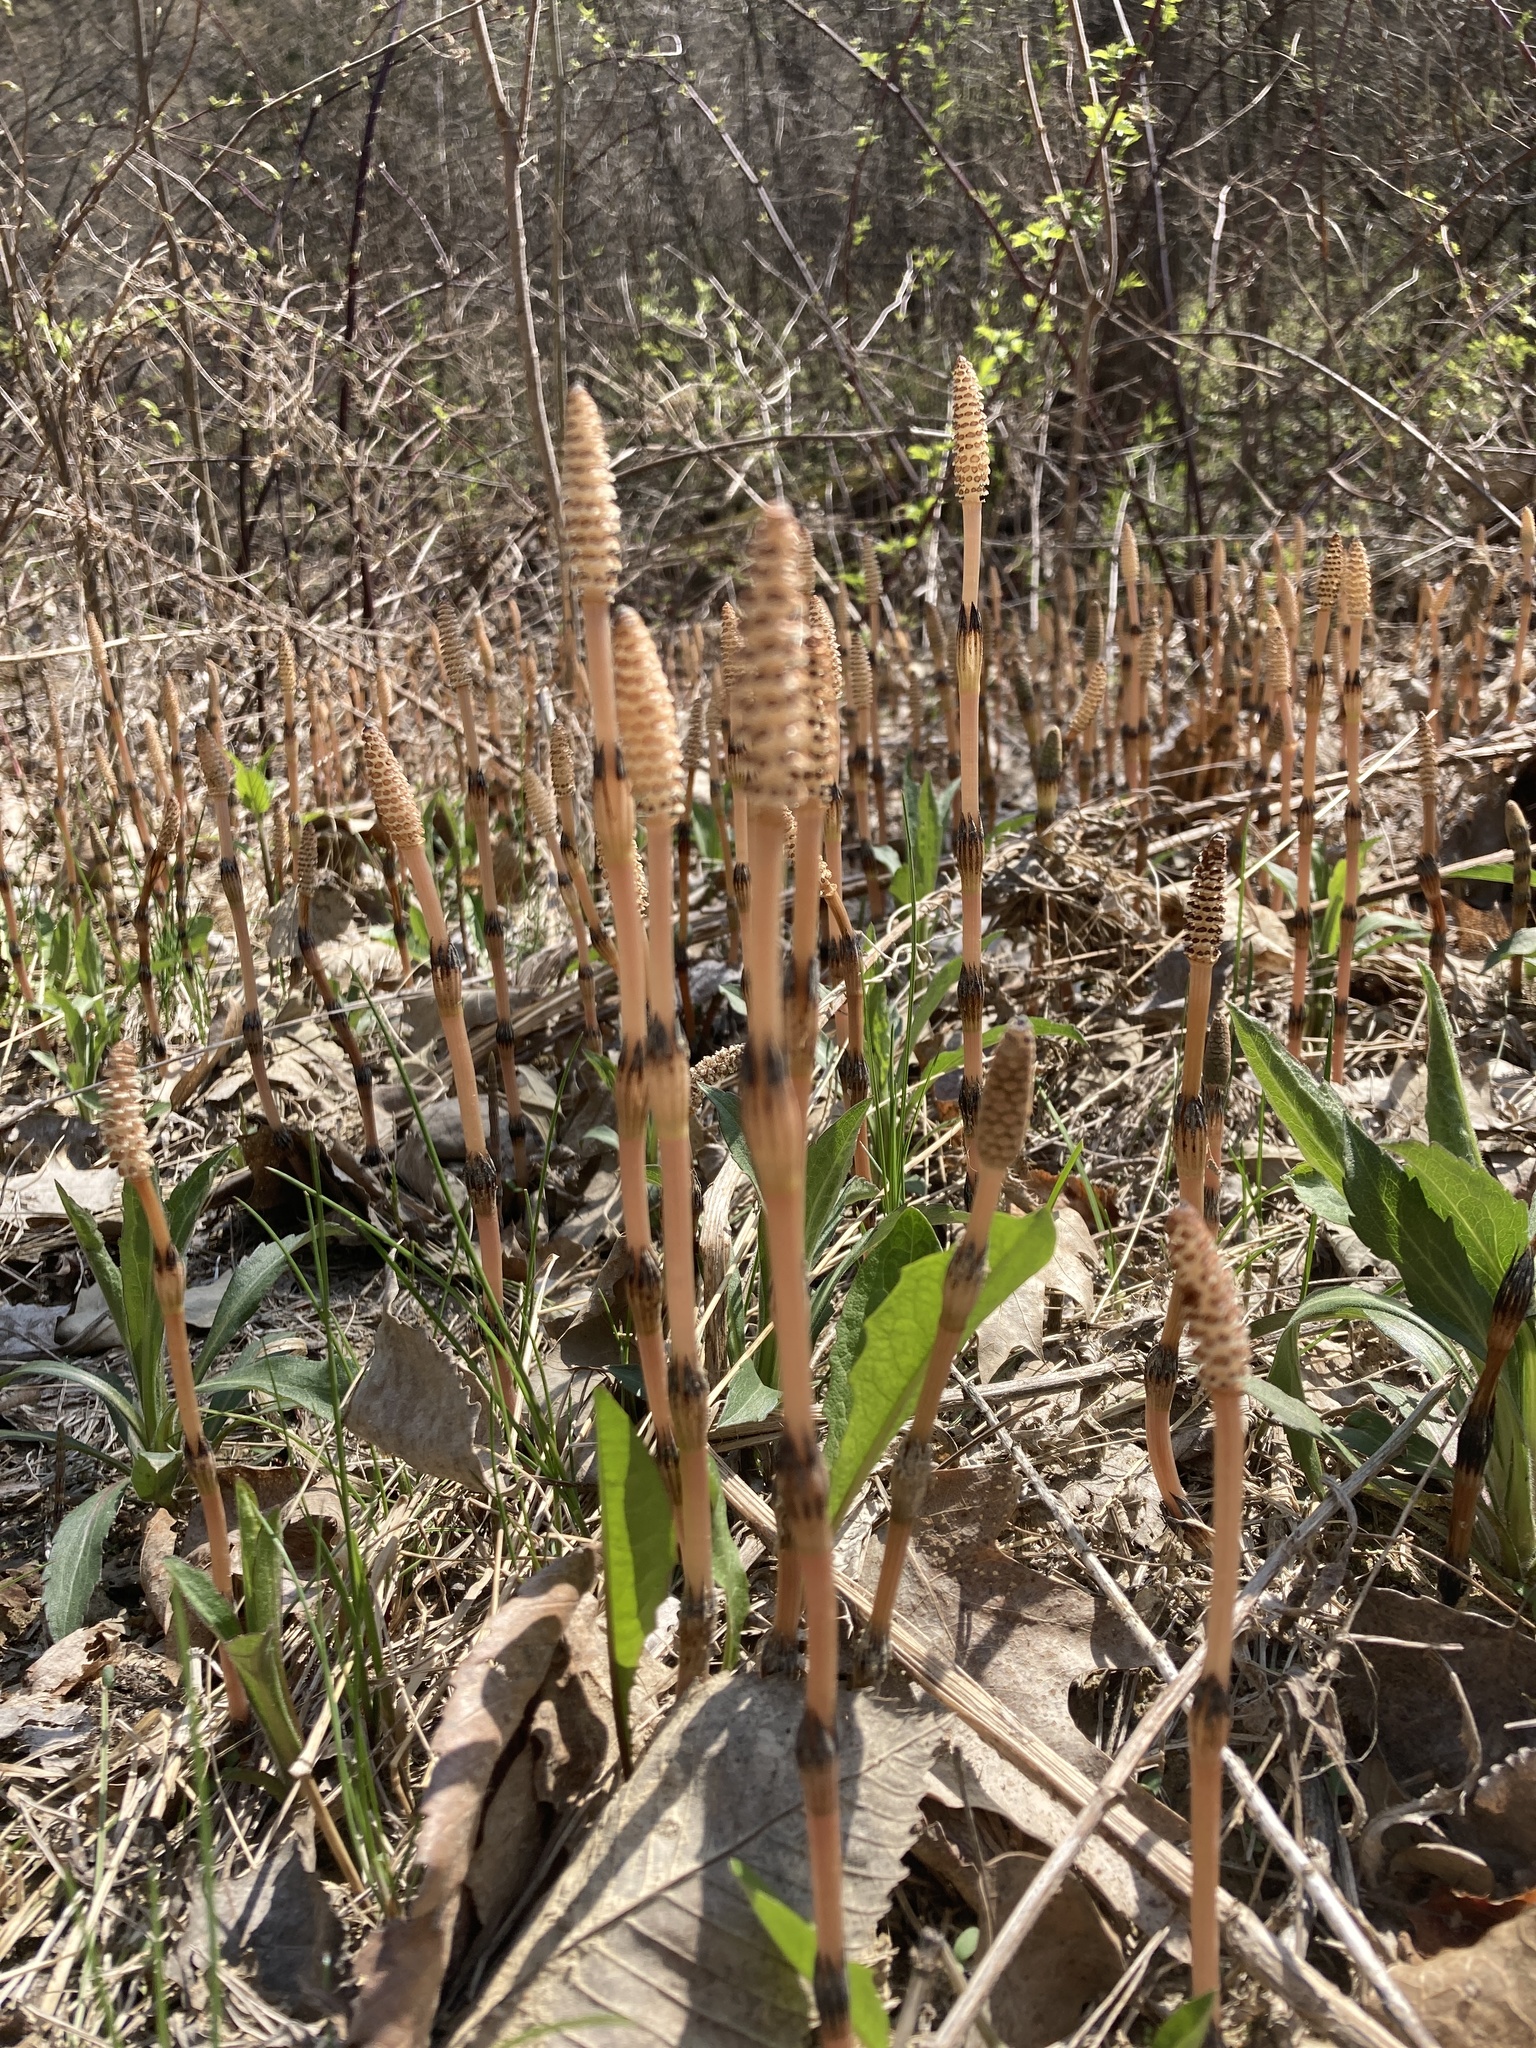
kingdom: Plantae
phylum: Tracheophyta
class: Polypodiopsida
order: Equisetales
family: Equisetaceae
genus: Equisetum
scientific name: Equisetum arvense
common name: Field horsetail
